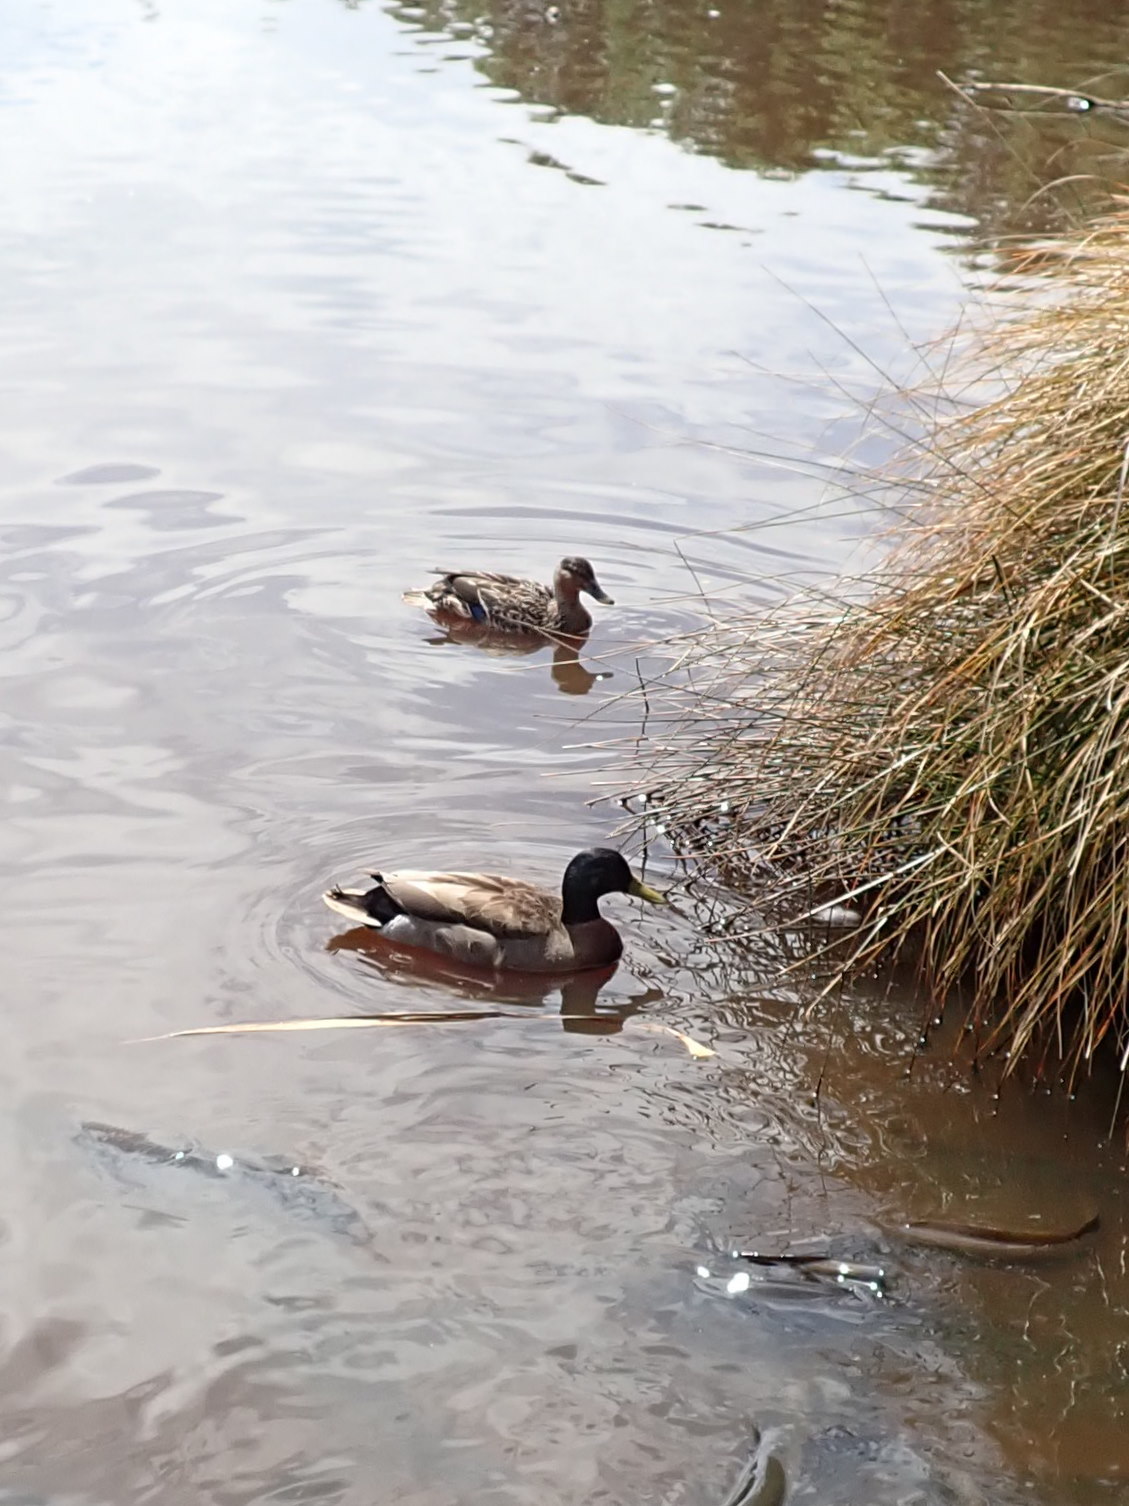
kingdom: Animalia
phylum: Chordata
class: Aves
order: Anseriformes
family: Anatidae
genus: Anas
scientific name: Anas platyrhynchos
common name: Mallard
